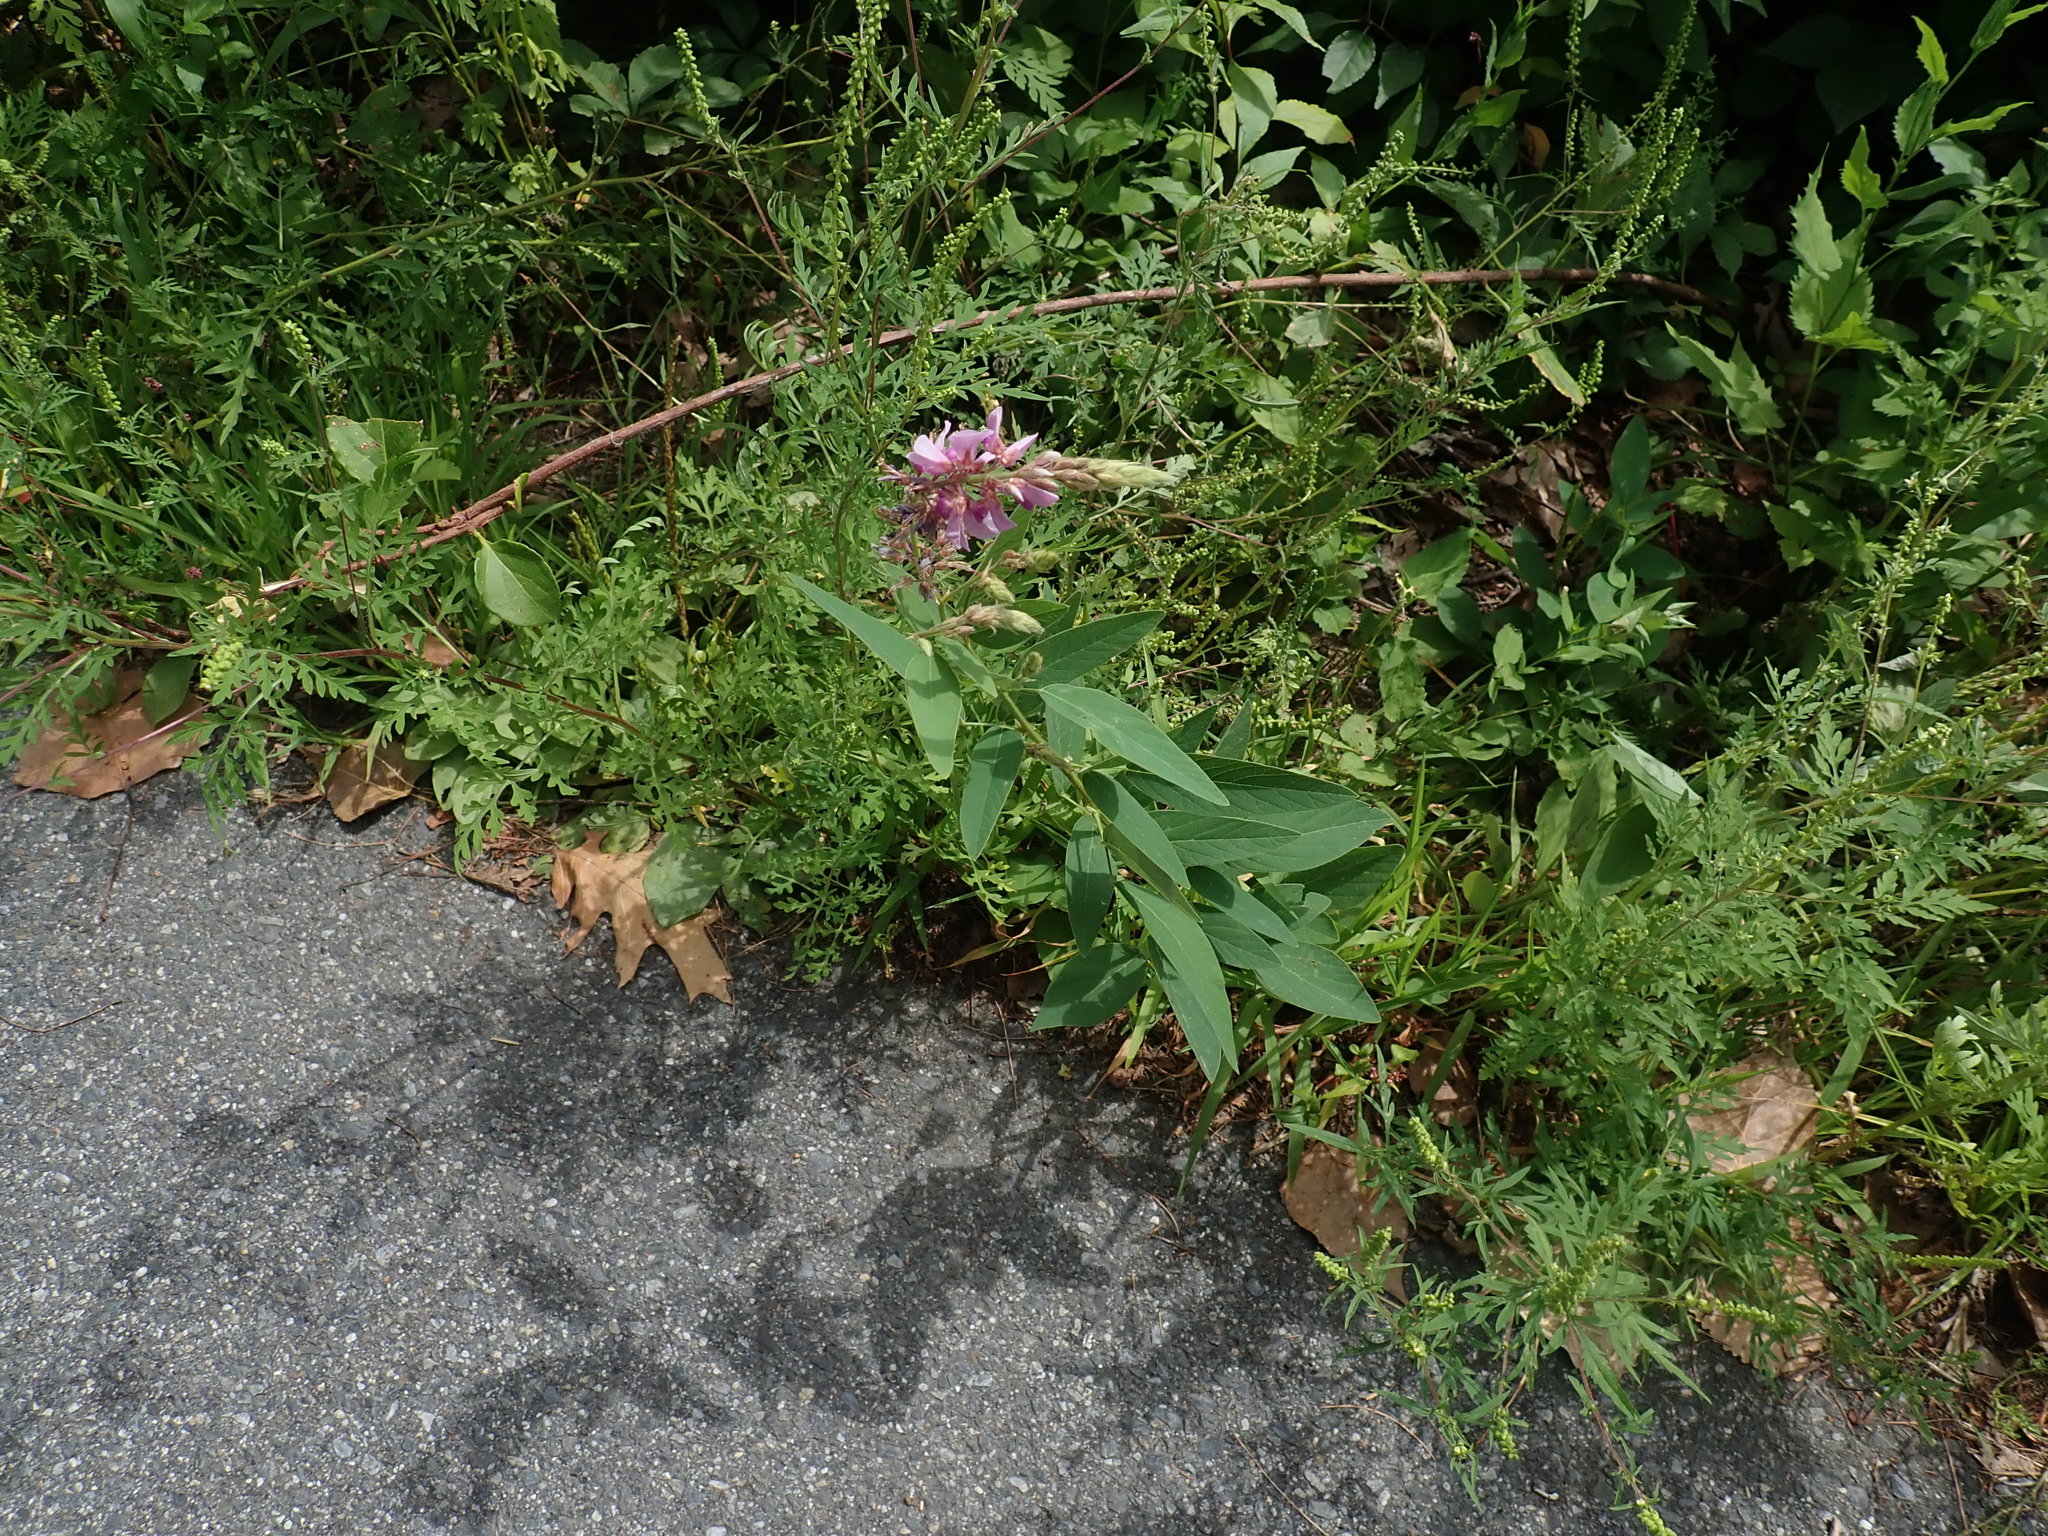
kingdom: Plantae
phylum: Tracheophyta
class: Magnoliopsida
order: Fabales
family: Fabaceae
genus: Desmodium
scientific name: Desmodium canadense
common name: Canada tick-trefoil
